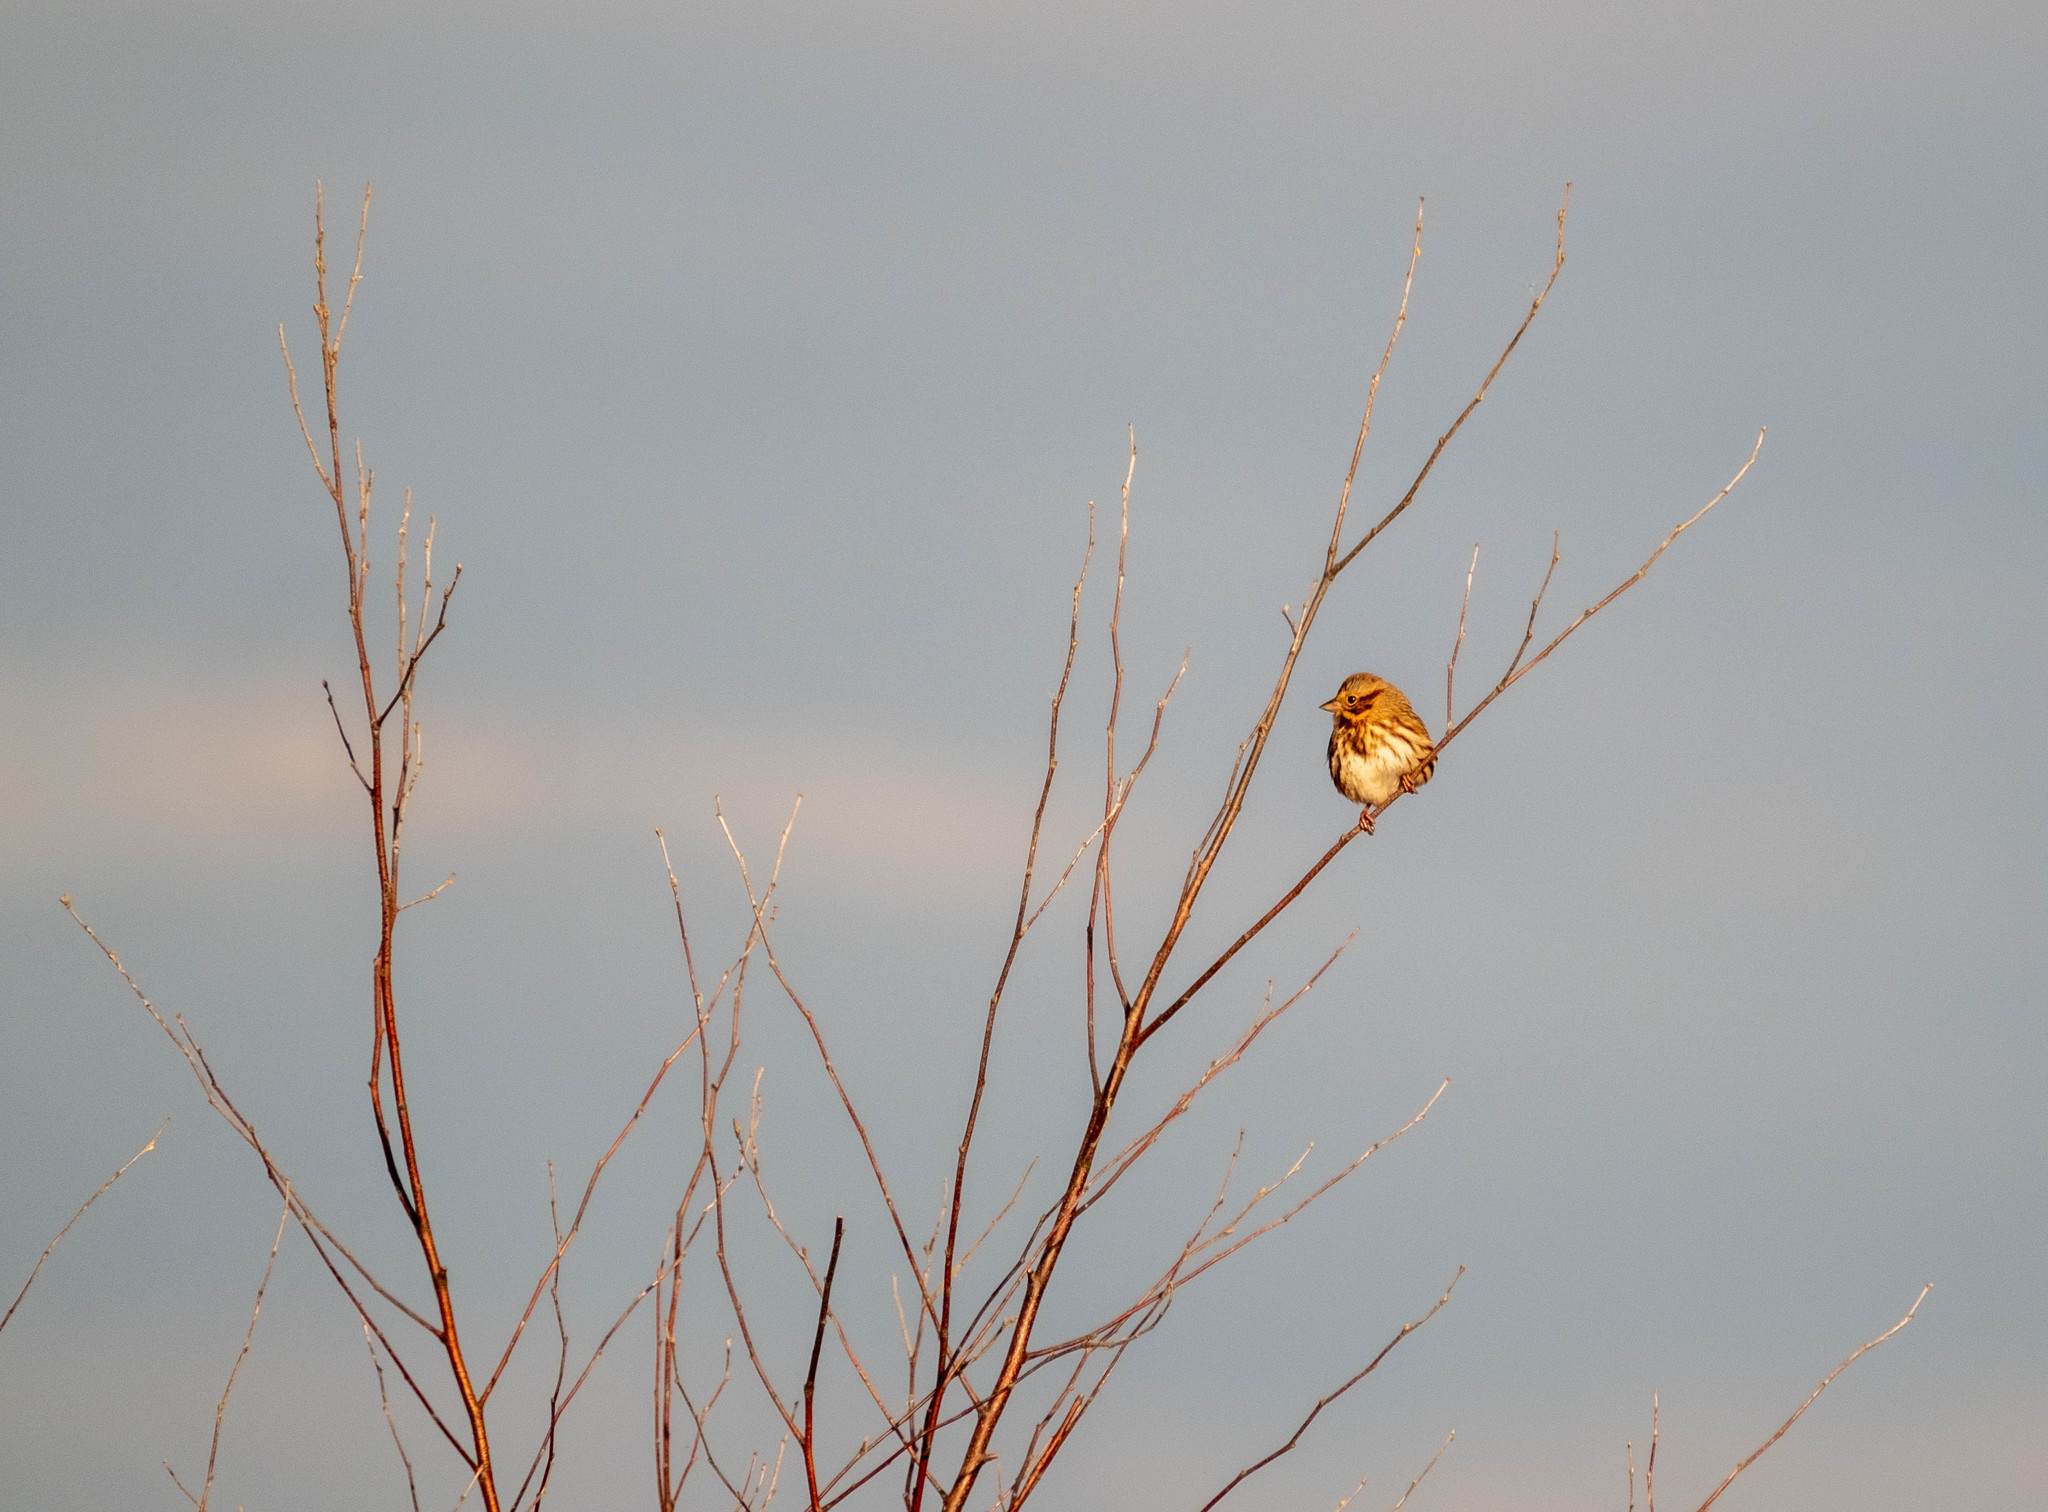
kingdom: Animalia
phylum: Chordata
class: Aves
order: Passeriformes
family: Passerellidae
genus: Melospiza
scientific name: Melospiza melodia
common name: Song sparrow
